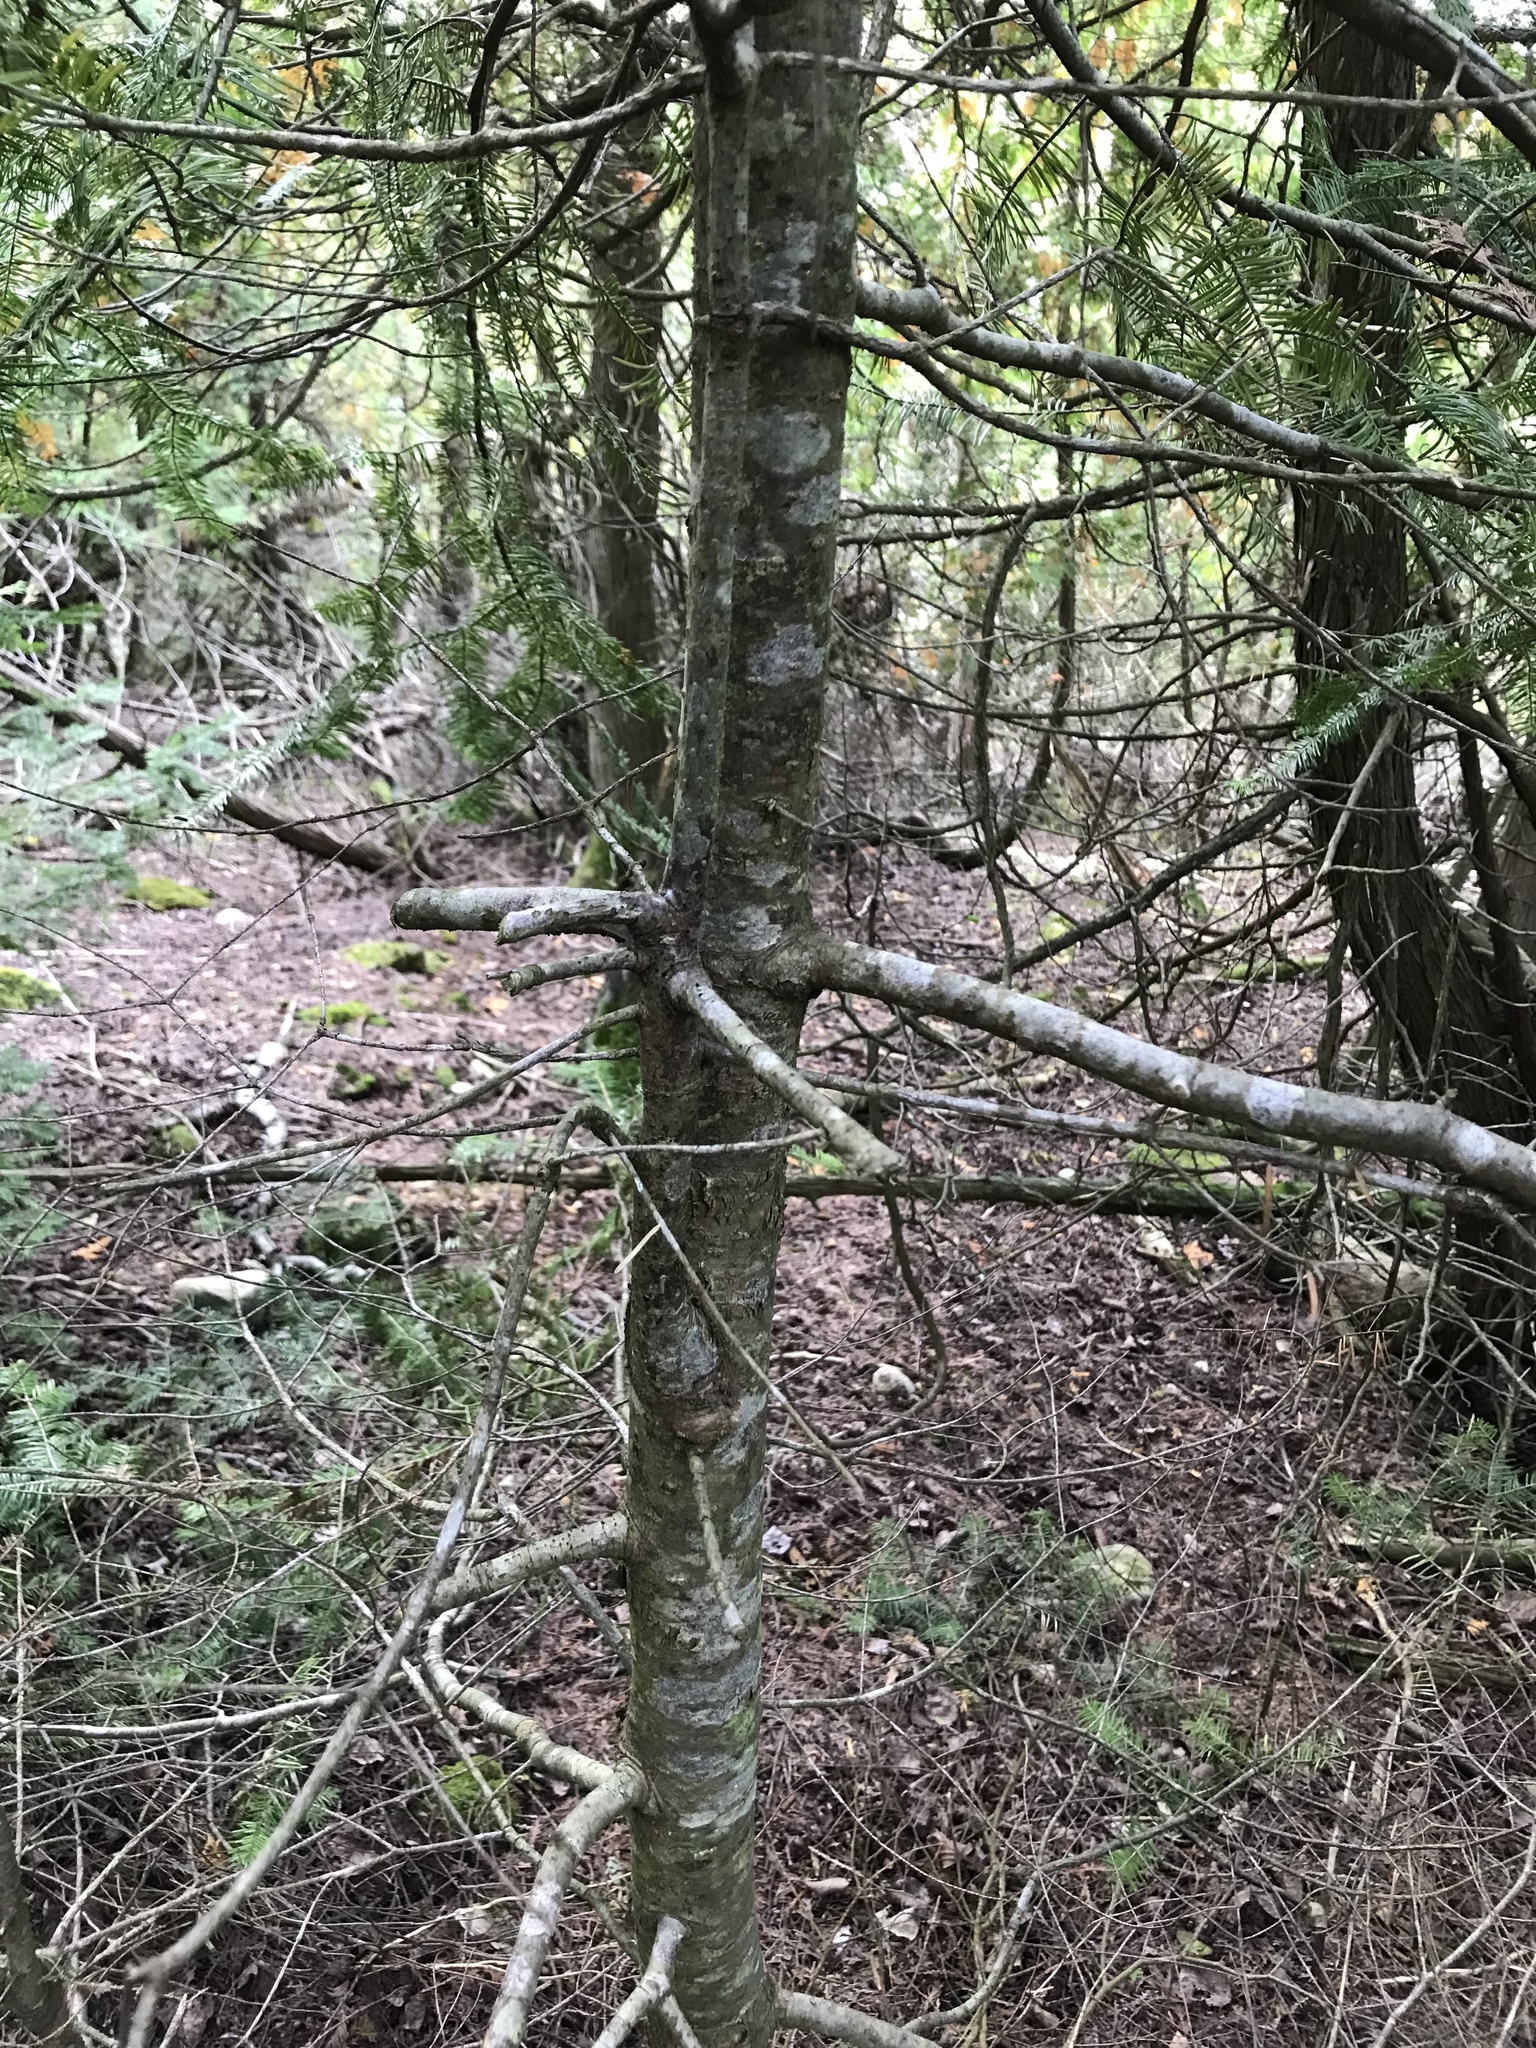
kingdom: Plantae
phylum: Tracheophyta
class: Pinopsida
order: Pinales
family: Pinaceae
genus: Tsuga
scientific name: Tsuga canadensis
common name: Eastern hemlock
